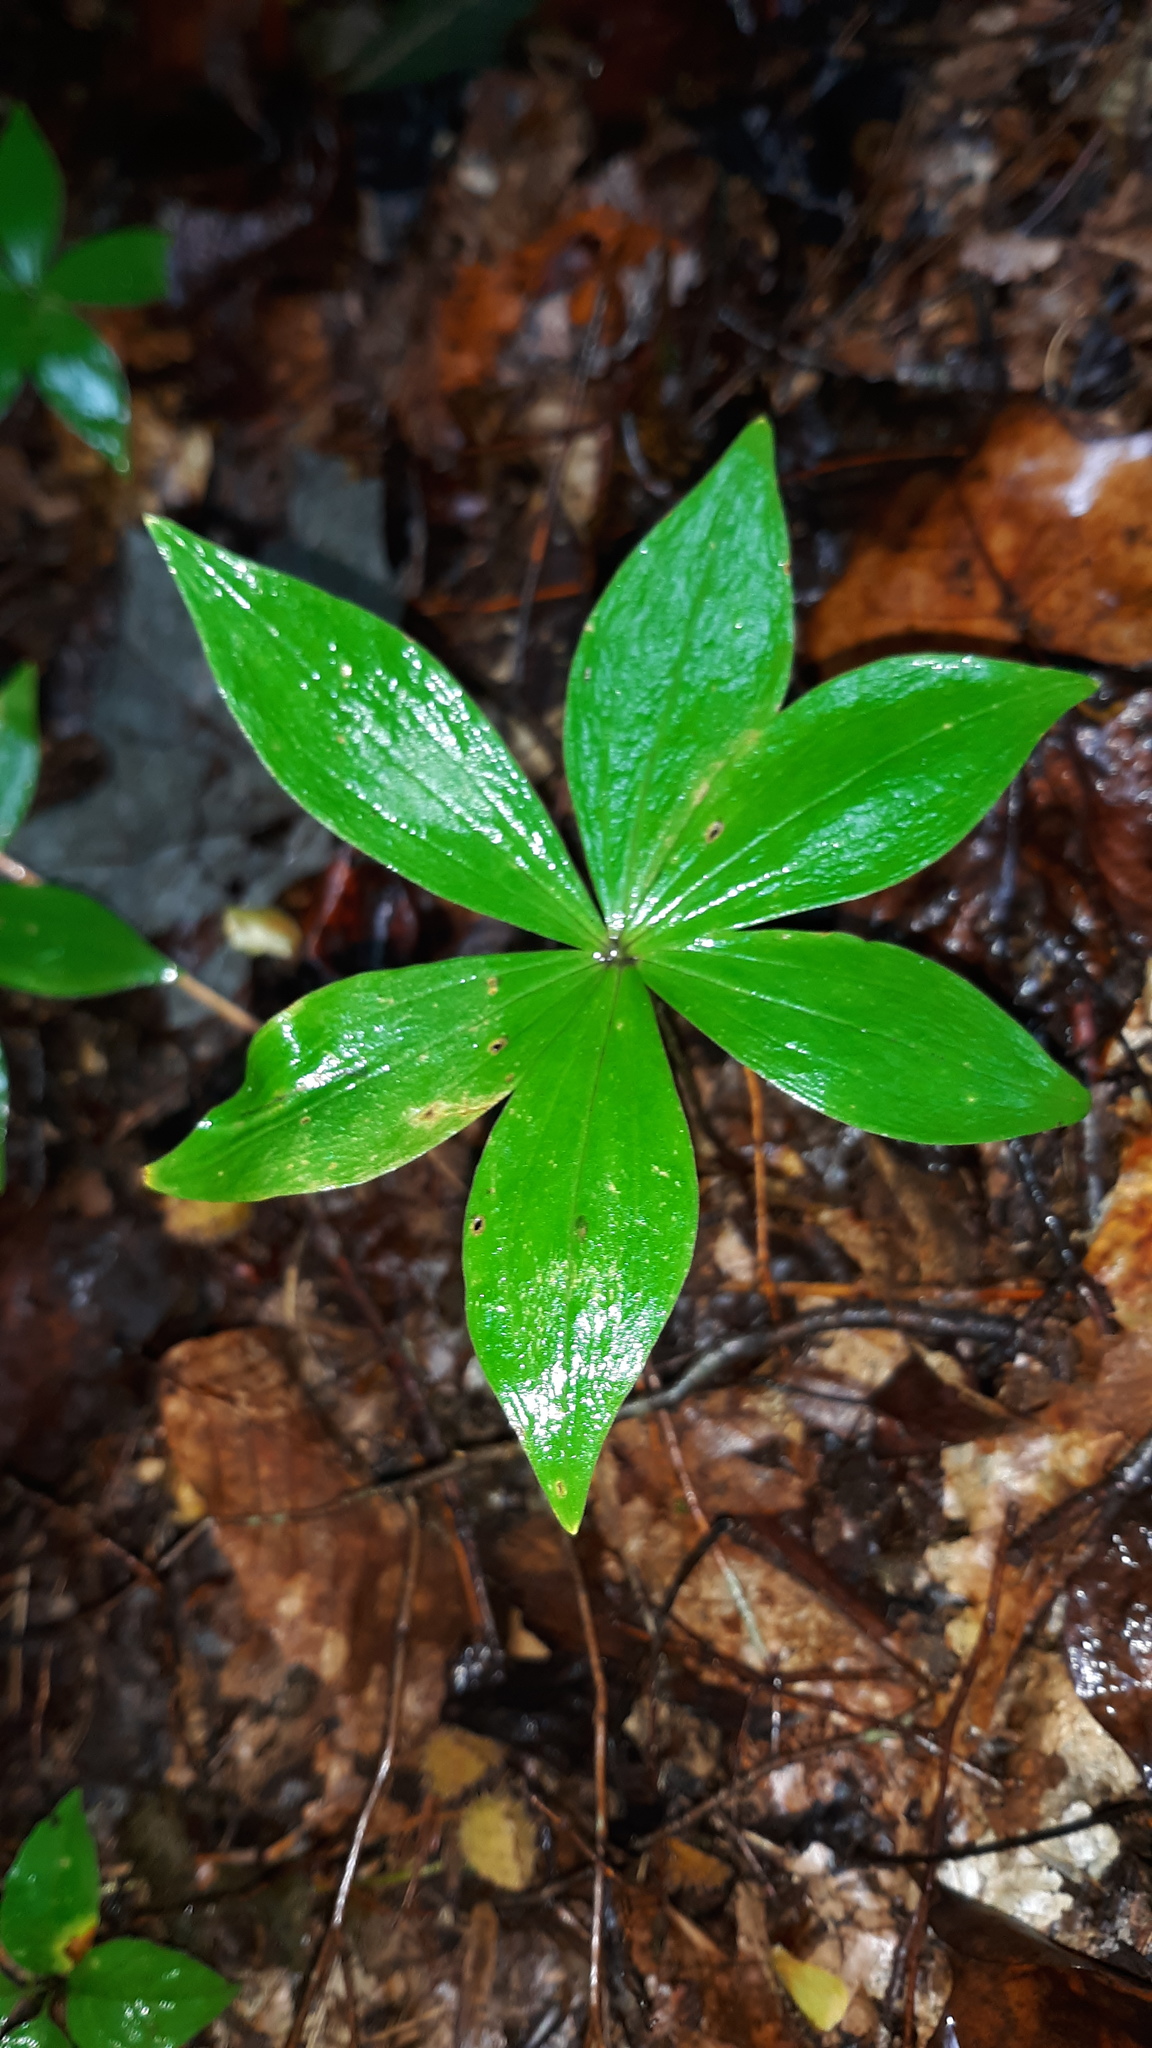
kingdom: Plantae
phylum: Tracheophyta
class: Liliopsida
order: Liliales
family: Liliaceae
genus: Medeola
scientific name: Medeola virginiana
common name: Indian cucumber-root
